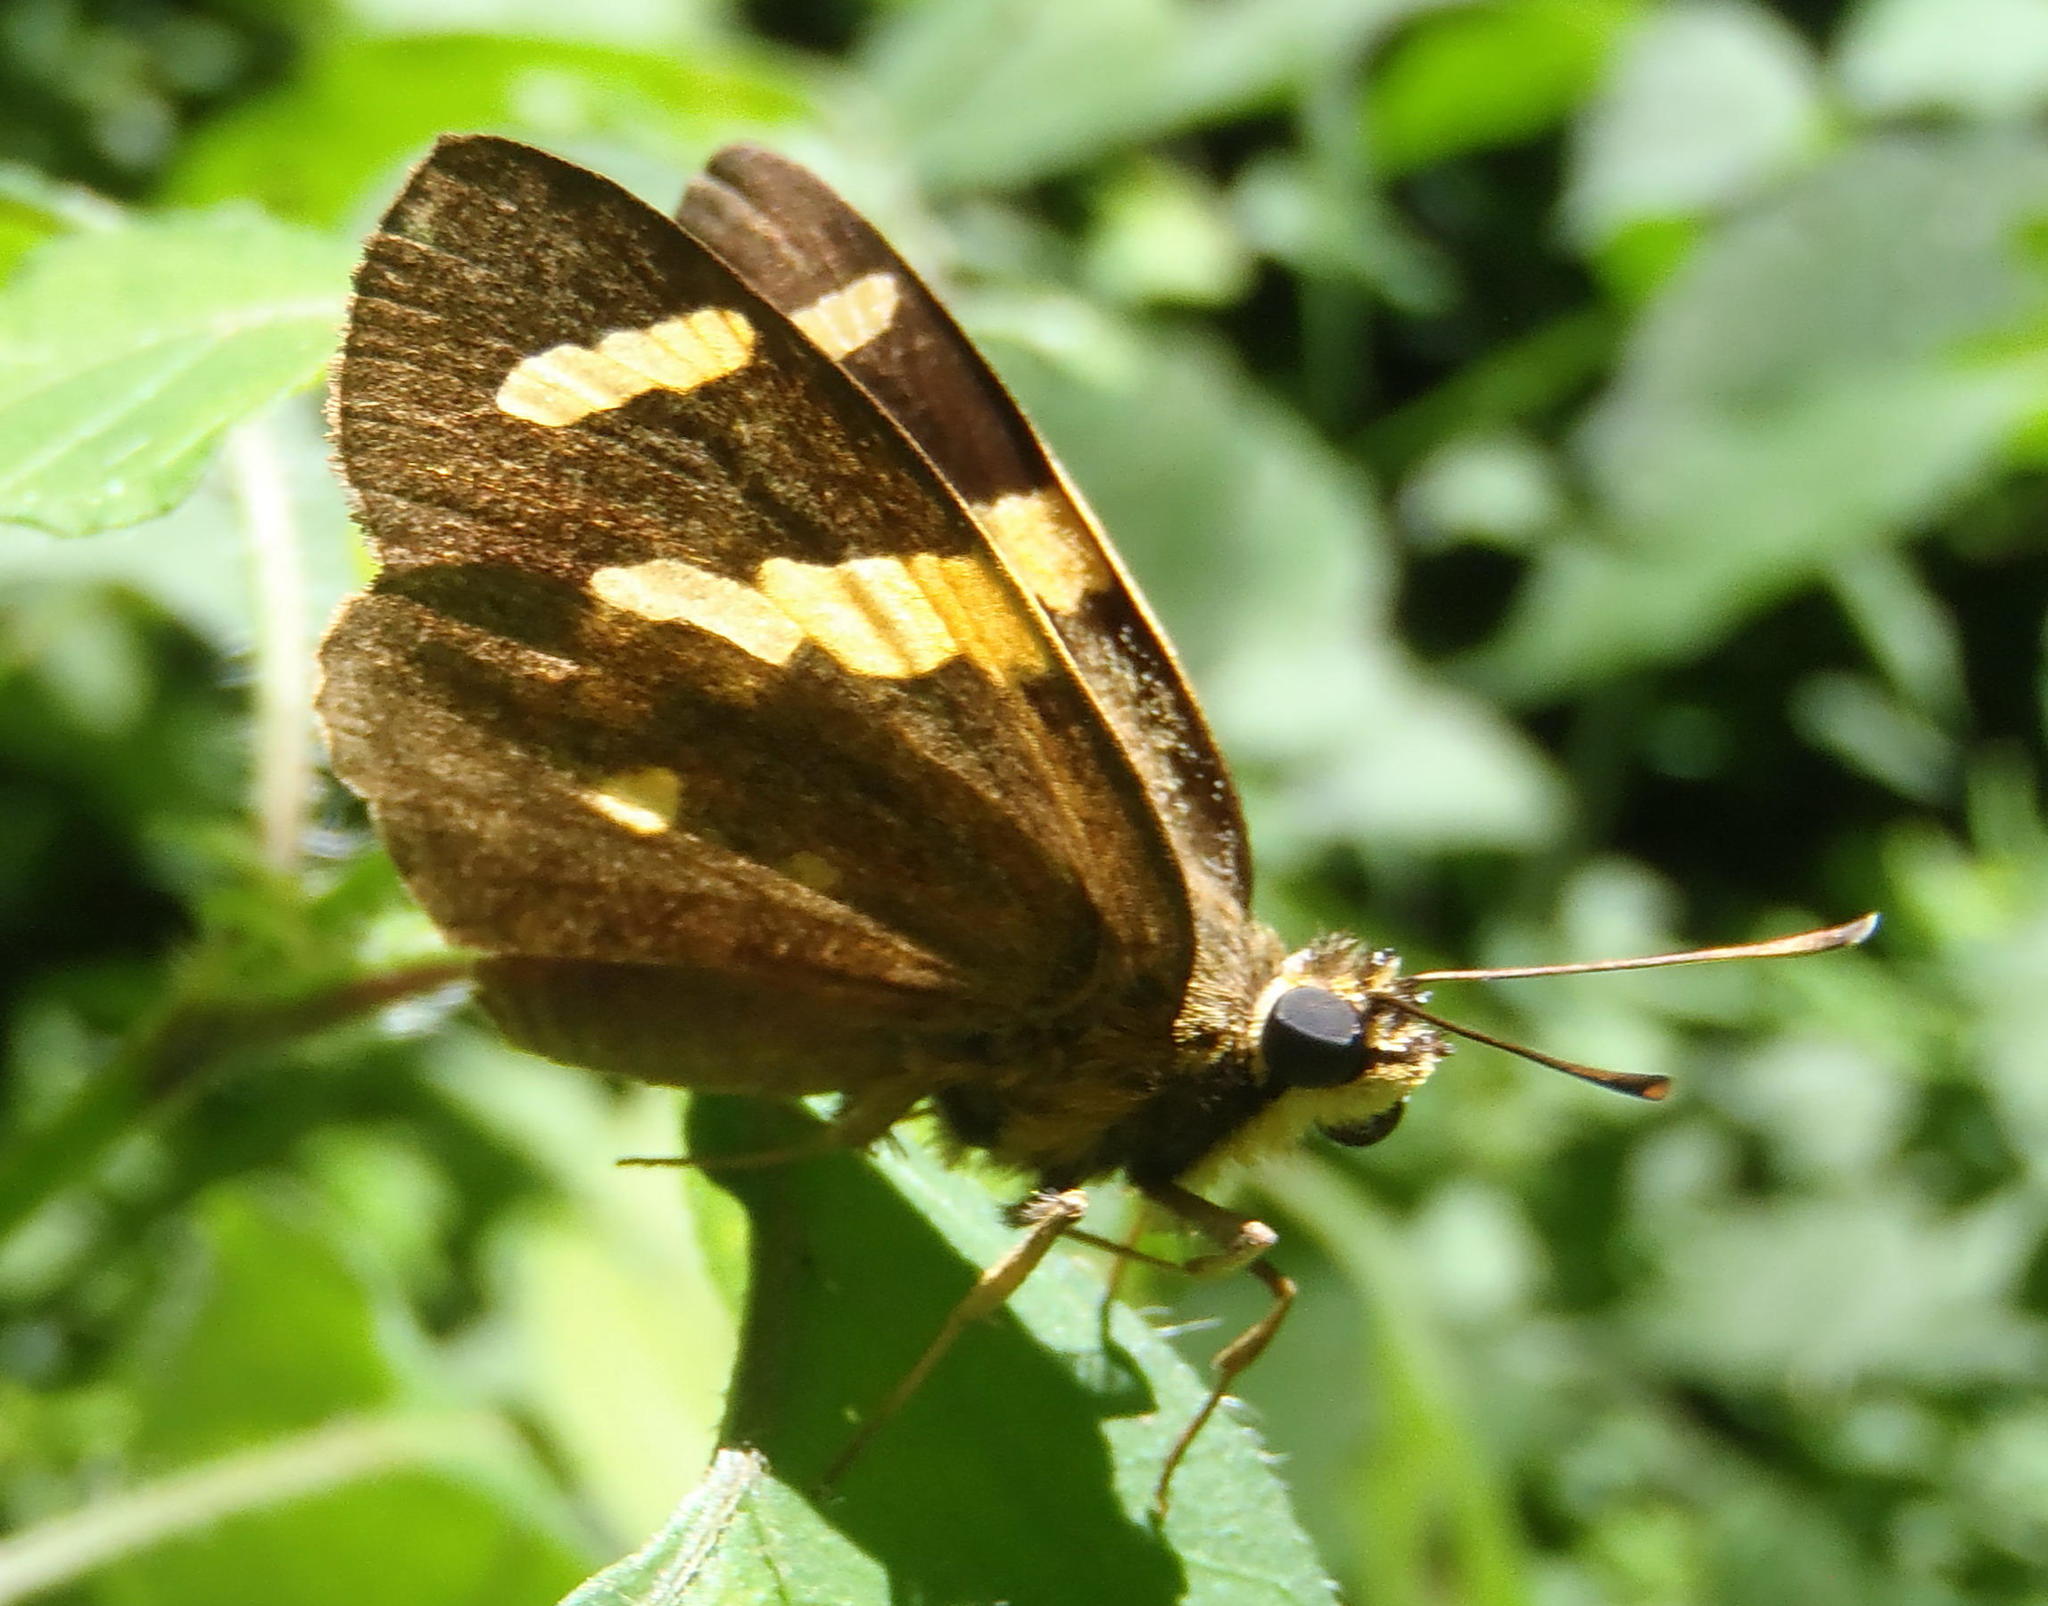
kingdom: Animalia
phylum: Arthropoda
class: Insecta
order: Lepidoptera
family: Hesperiidae
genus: Celaenorrhinus
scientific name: Celaenorrhinus mokeezi
